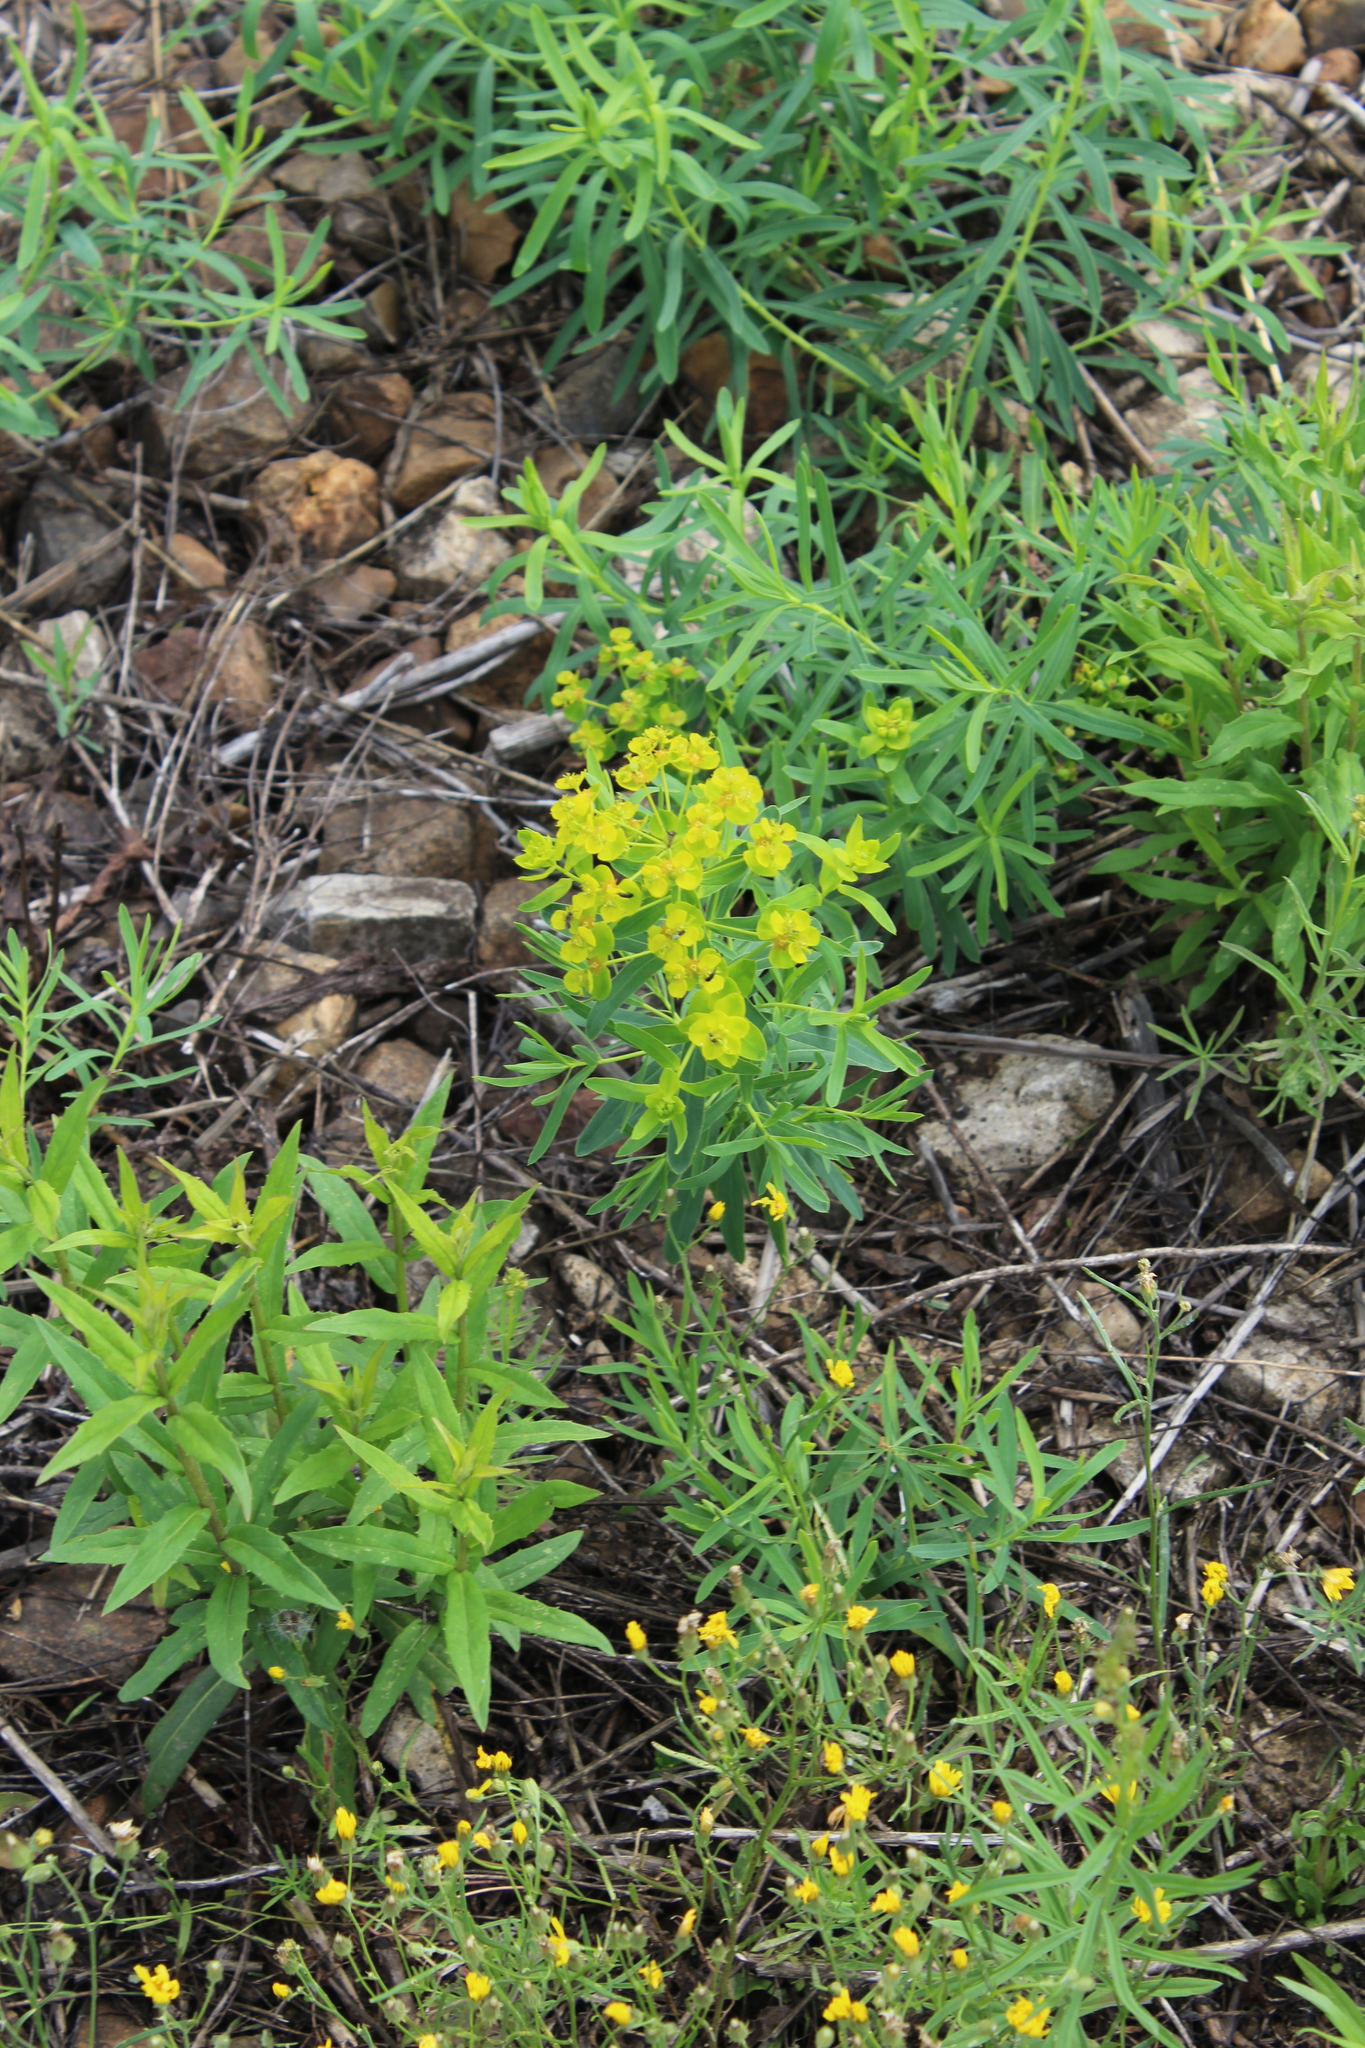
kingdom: Plantae
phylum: Tracheophyta
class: Magnoliopsida
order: Malpighiales
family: Euphorbiaceae
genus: Euphorbia
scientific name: Euphorbia virgata
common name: Leafy spurge
